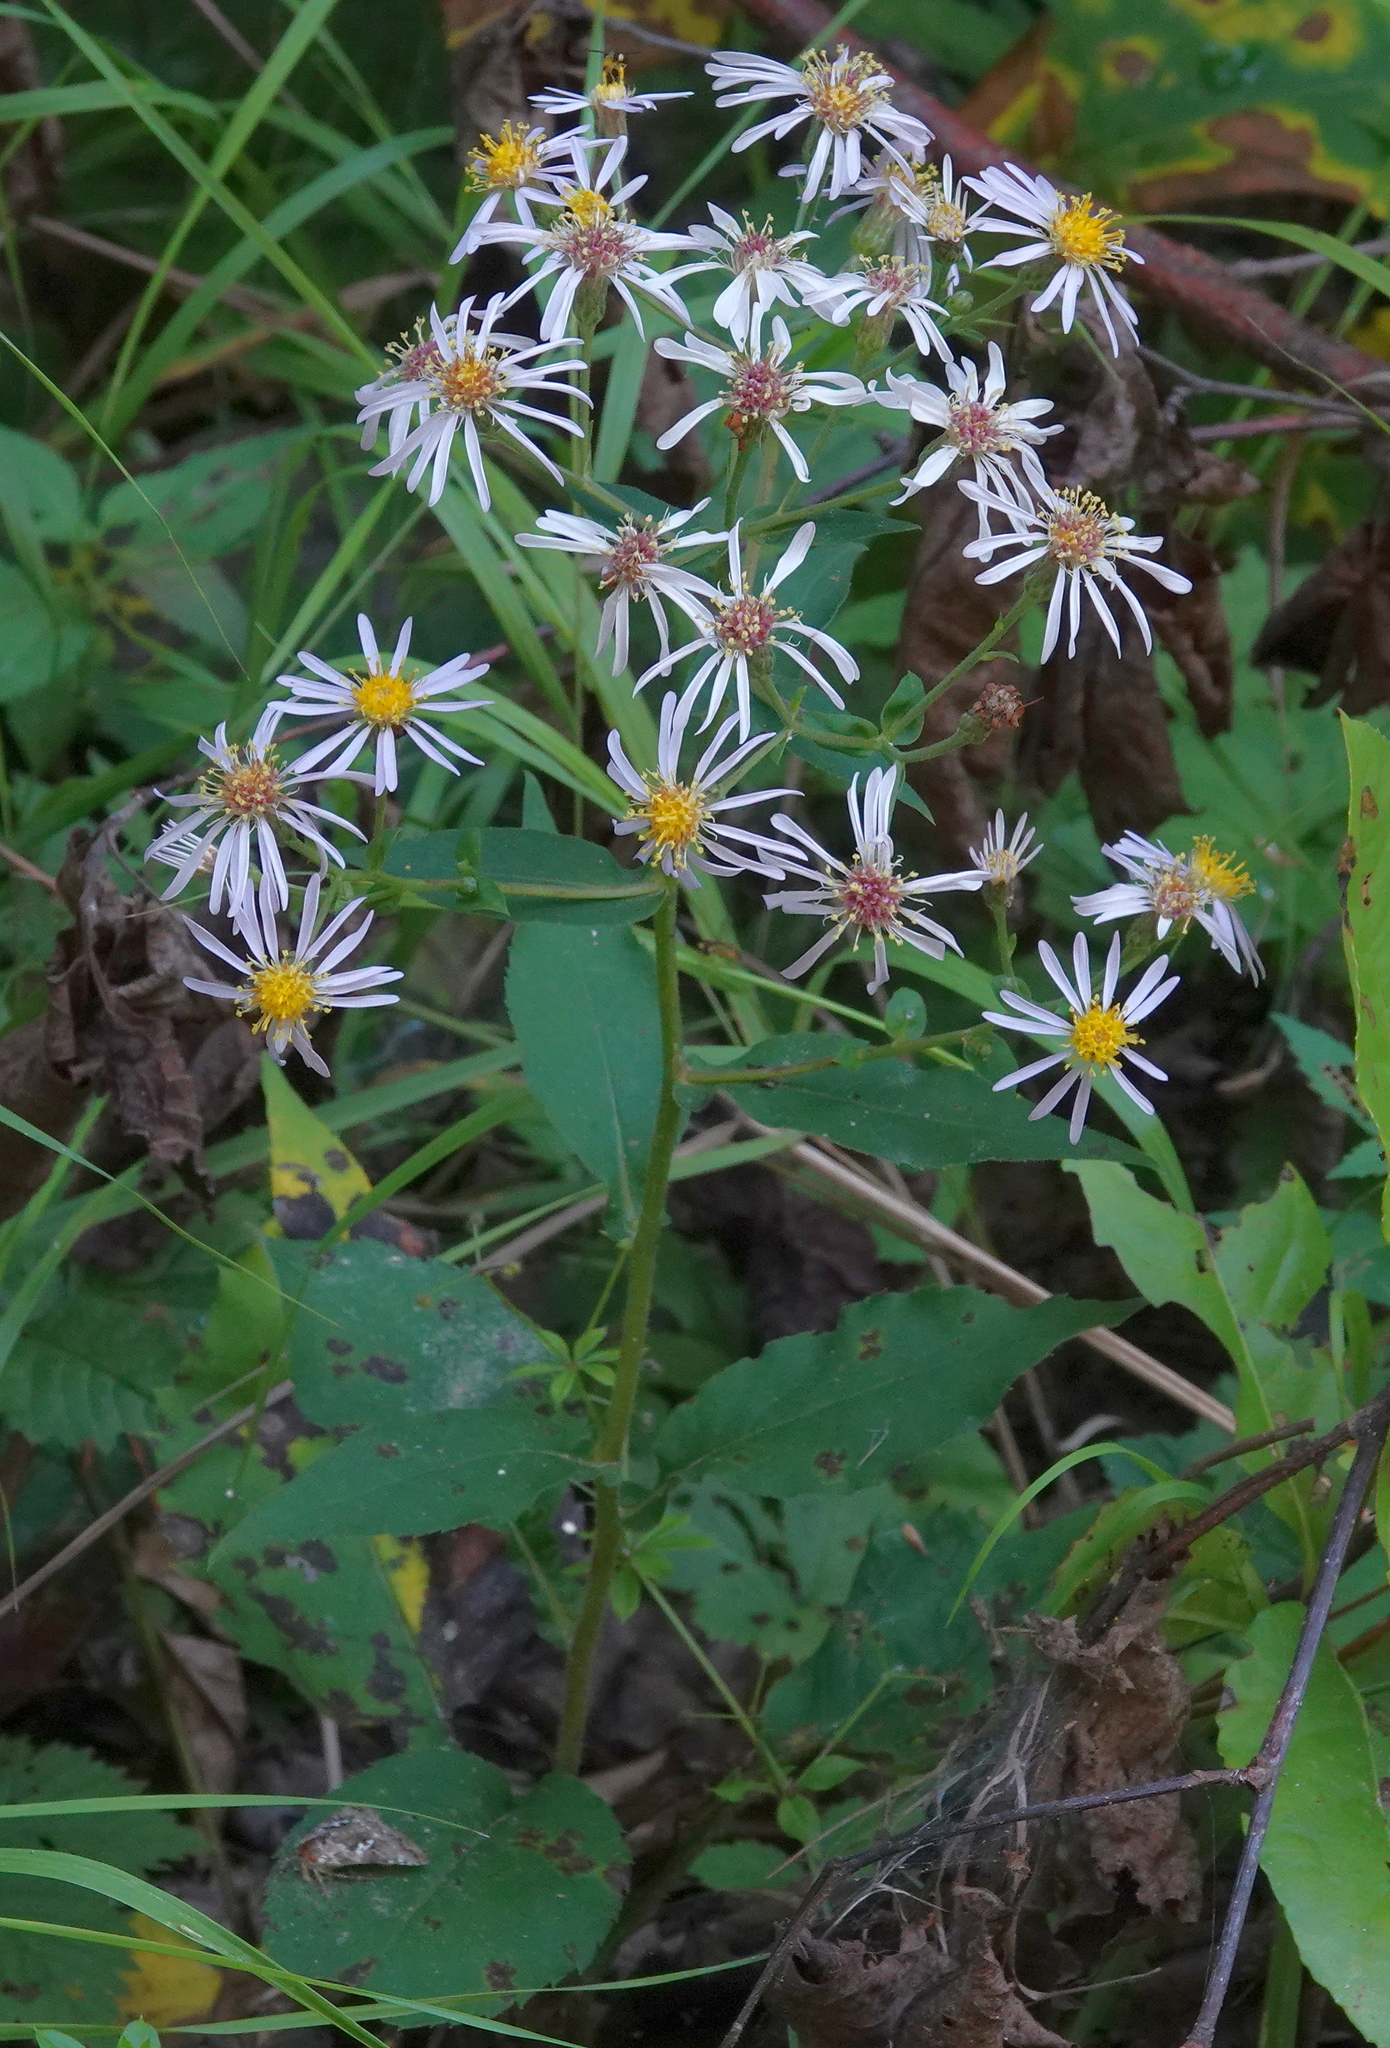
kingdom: Plantae
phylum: Tracheophyta
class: Magnoliopsida
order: Asterales
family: Asteraceae
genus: Eurybia
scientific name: Eurybia macrophylla
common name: Big-leaved aster
